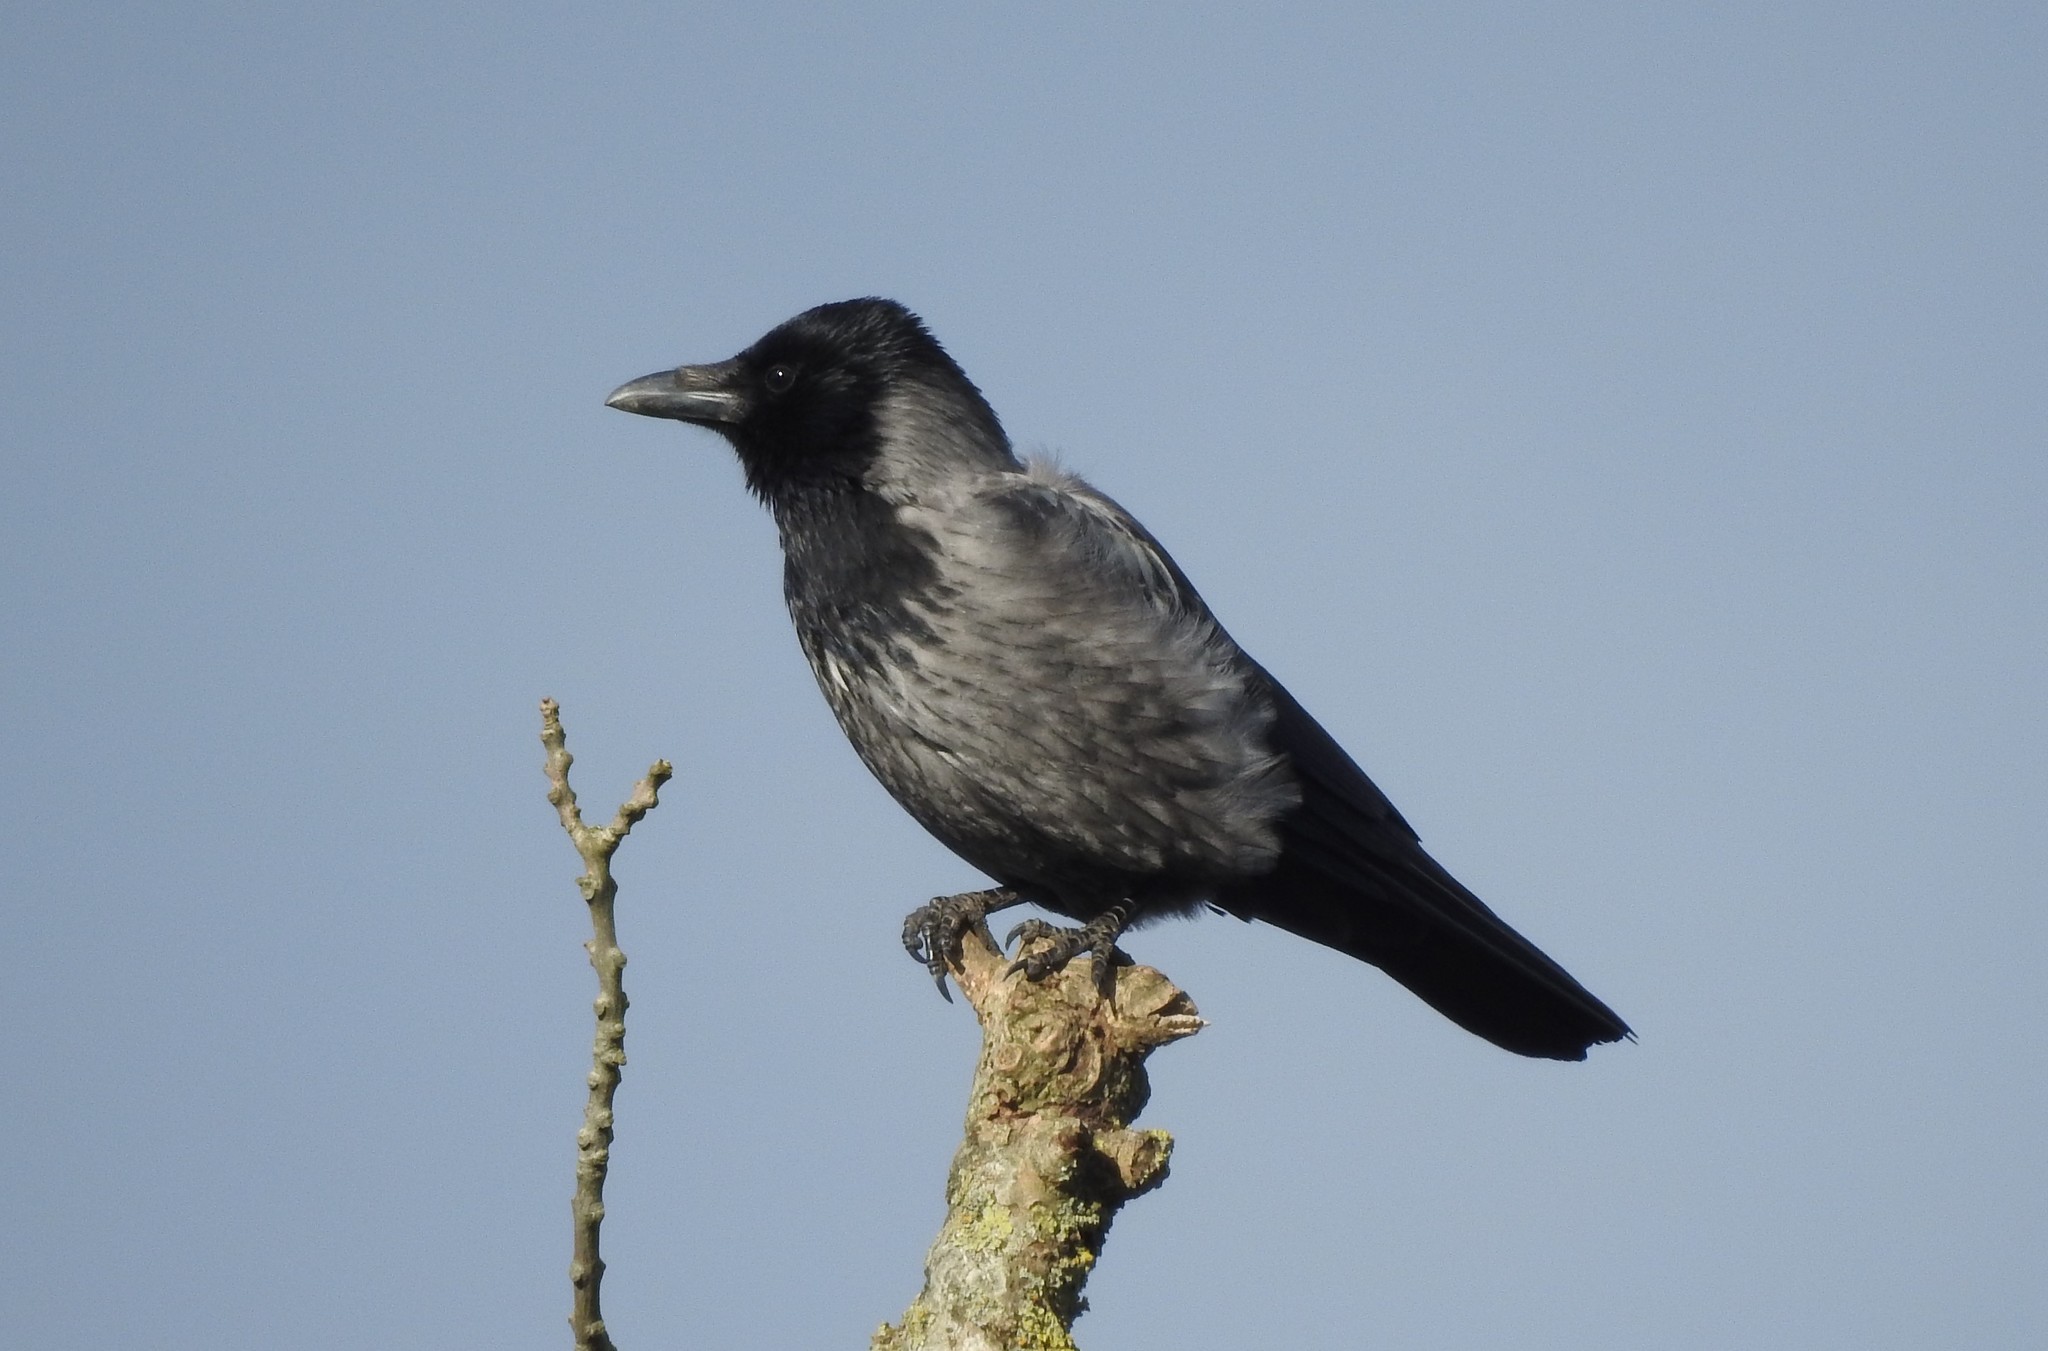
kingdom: Animalia
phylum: Chordata
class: Aves
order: Passeriformes
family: Corvidae
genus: Corvus
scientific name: Corvus cornix
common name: Hooded crow
